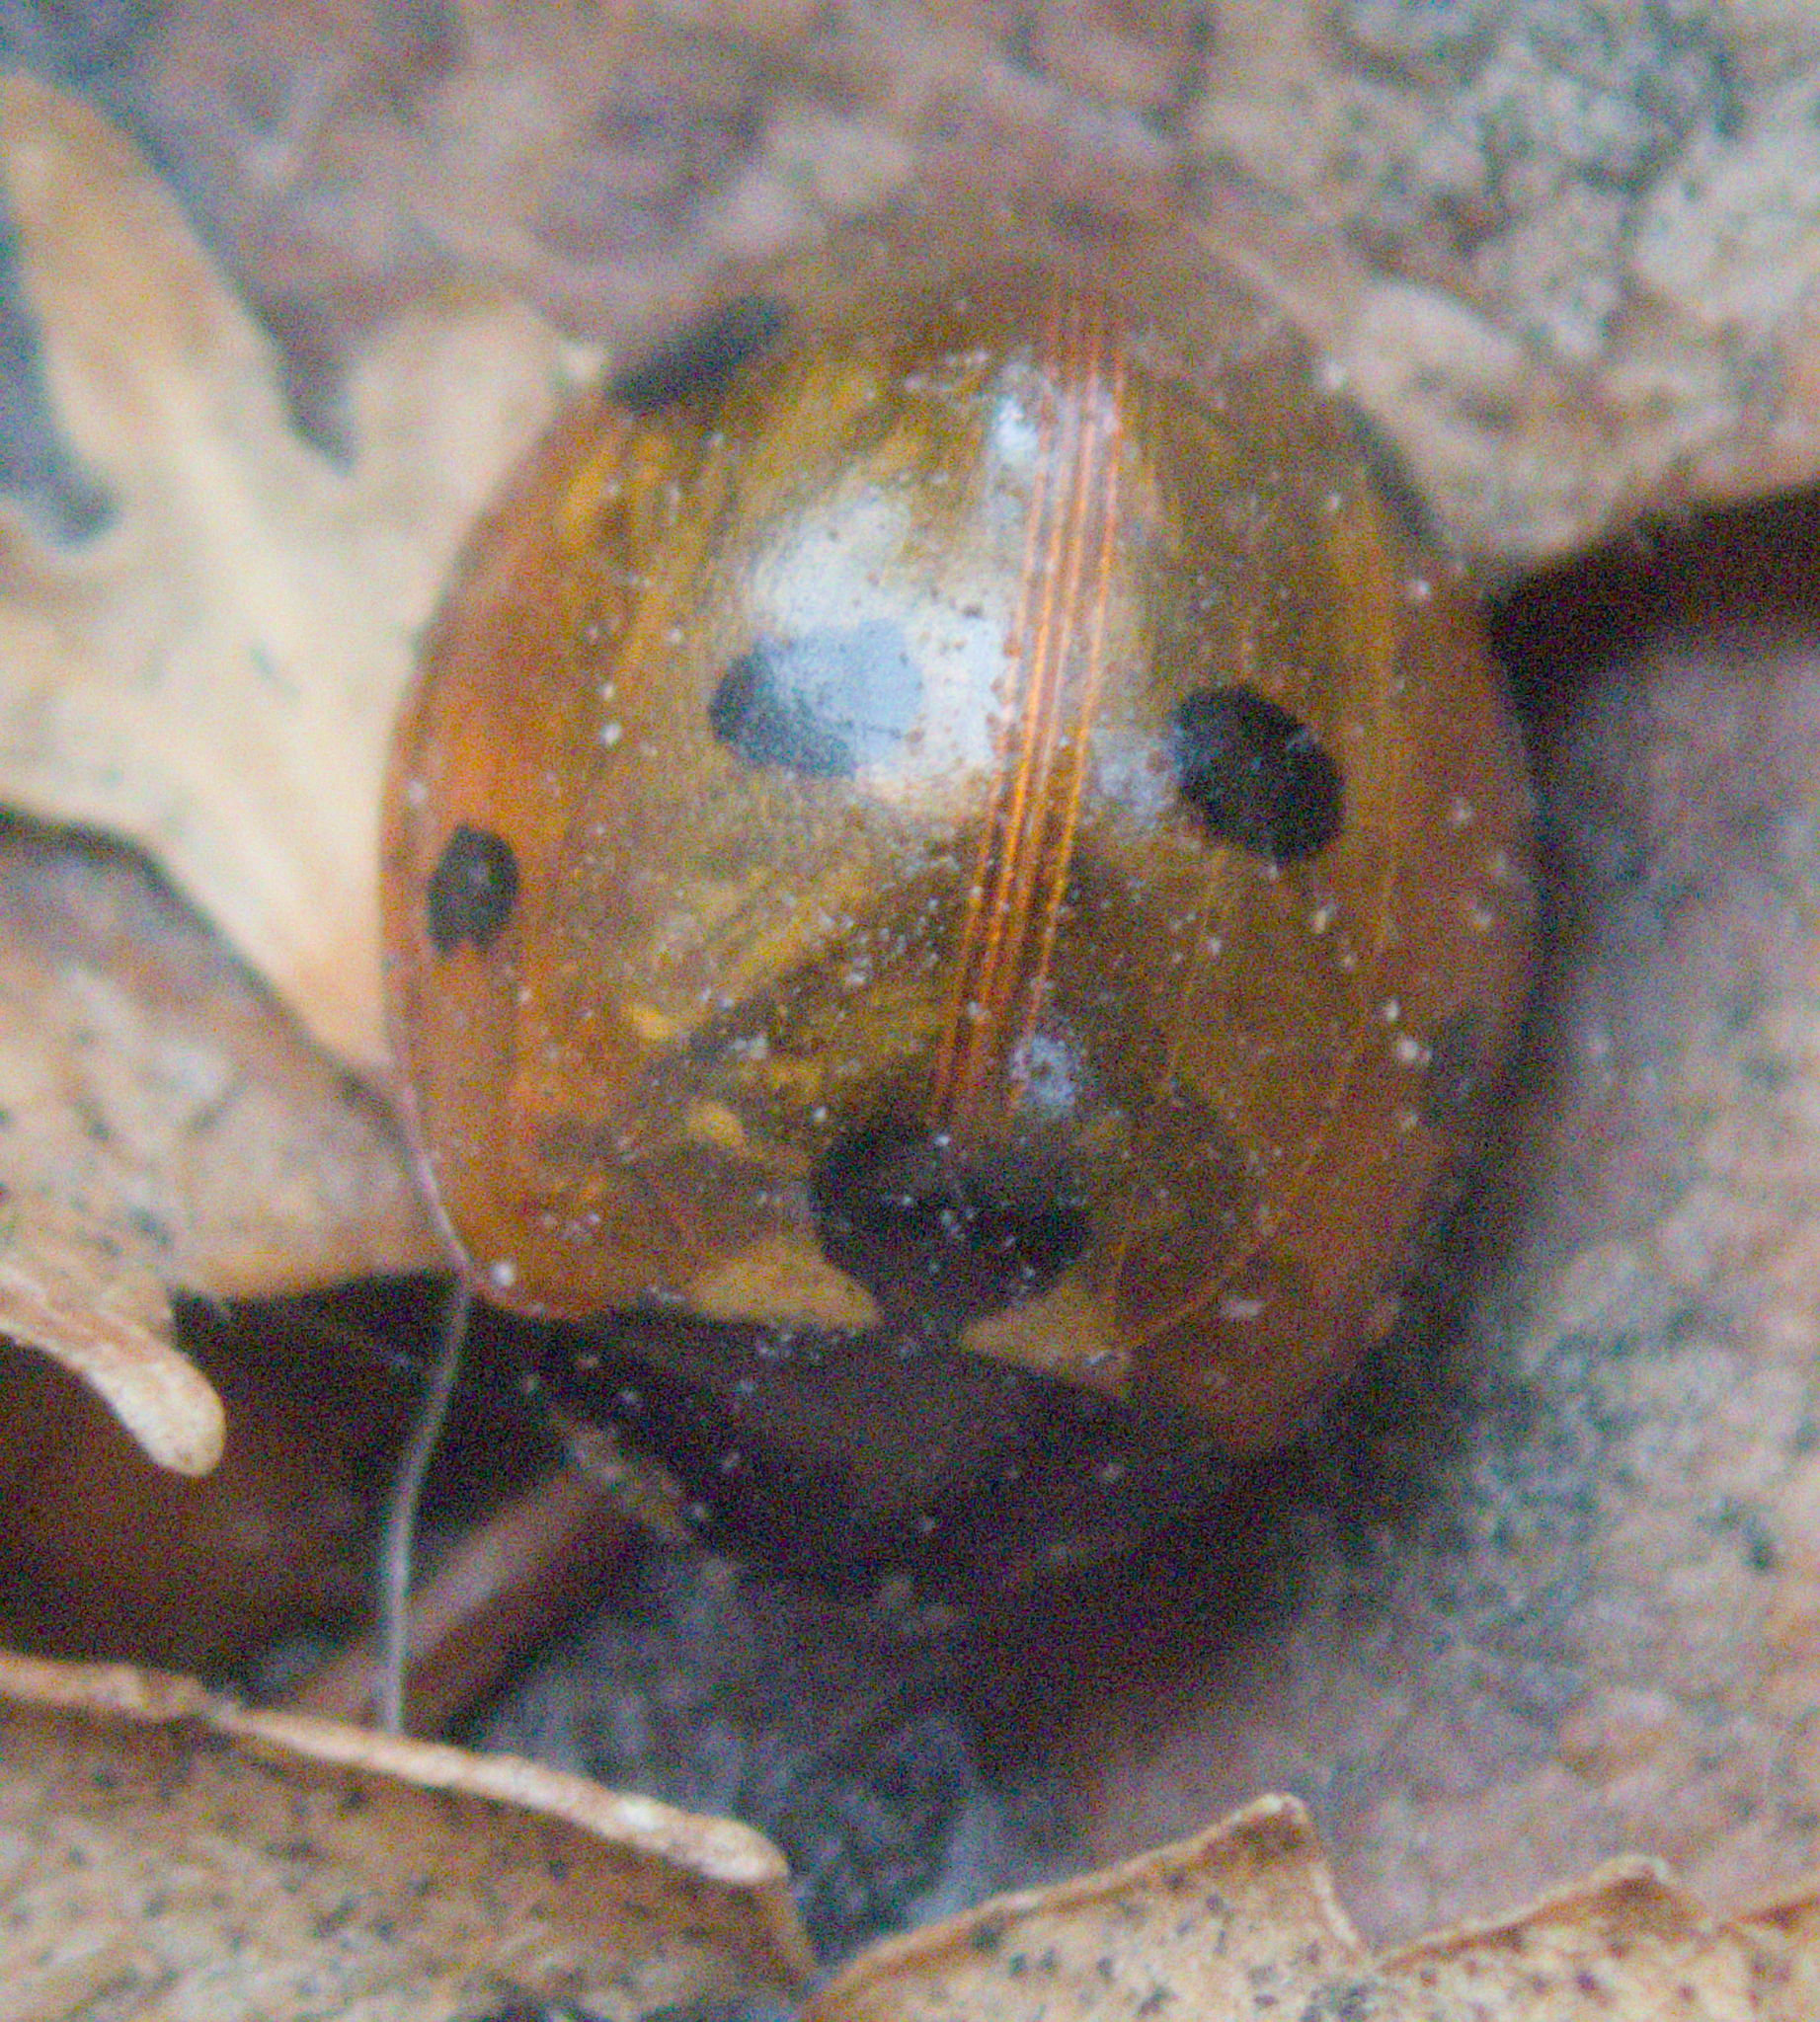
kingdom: Animalia
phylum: Arthropoda
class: Insecta
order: Coleoptera
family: Coccinellidae
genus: Coccinella
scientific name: Coccinella septempunctata
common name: Sevenspotted lady beetle
